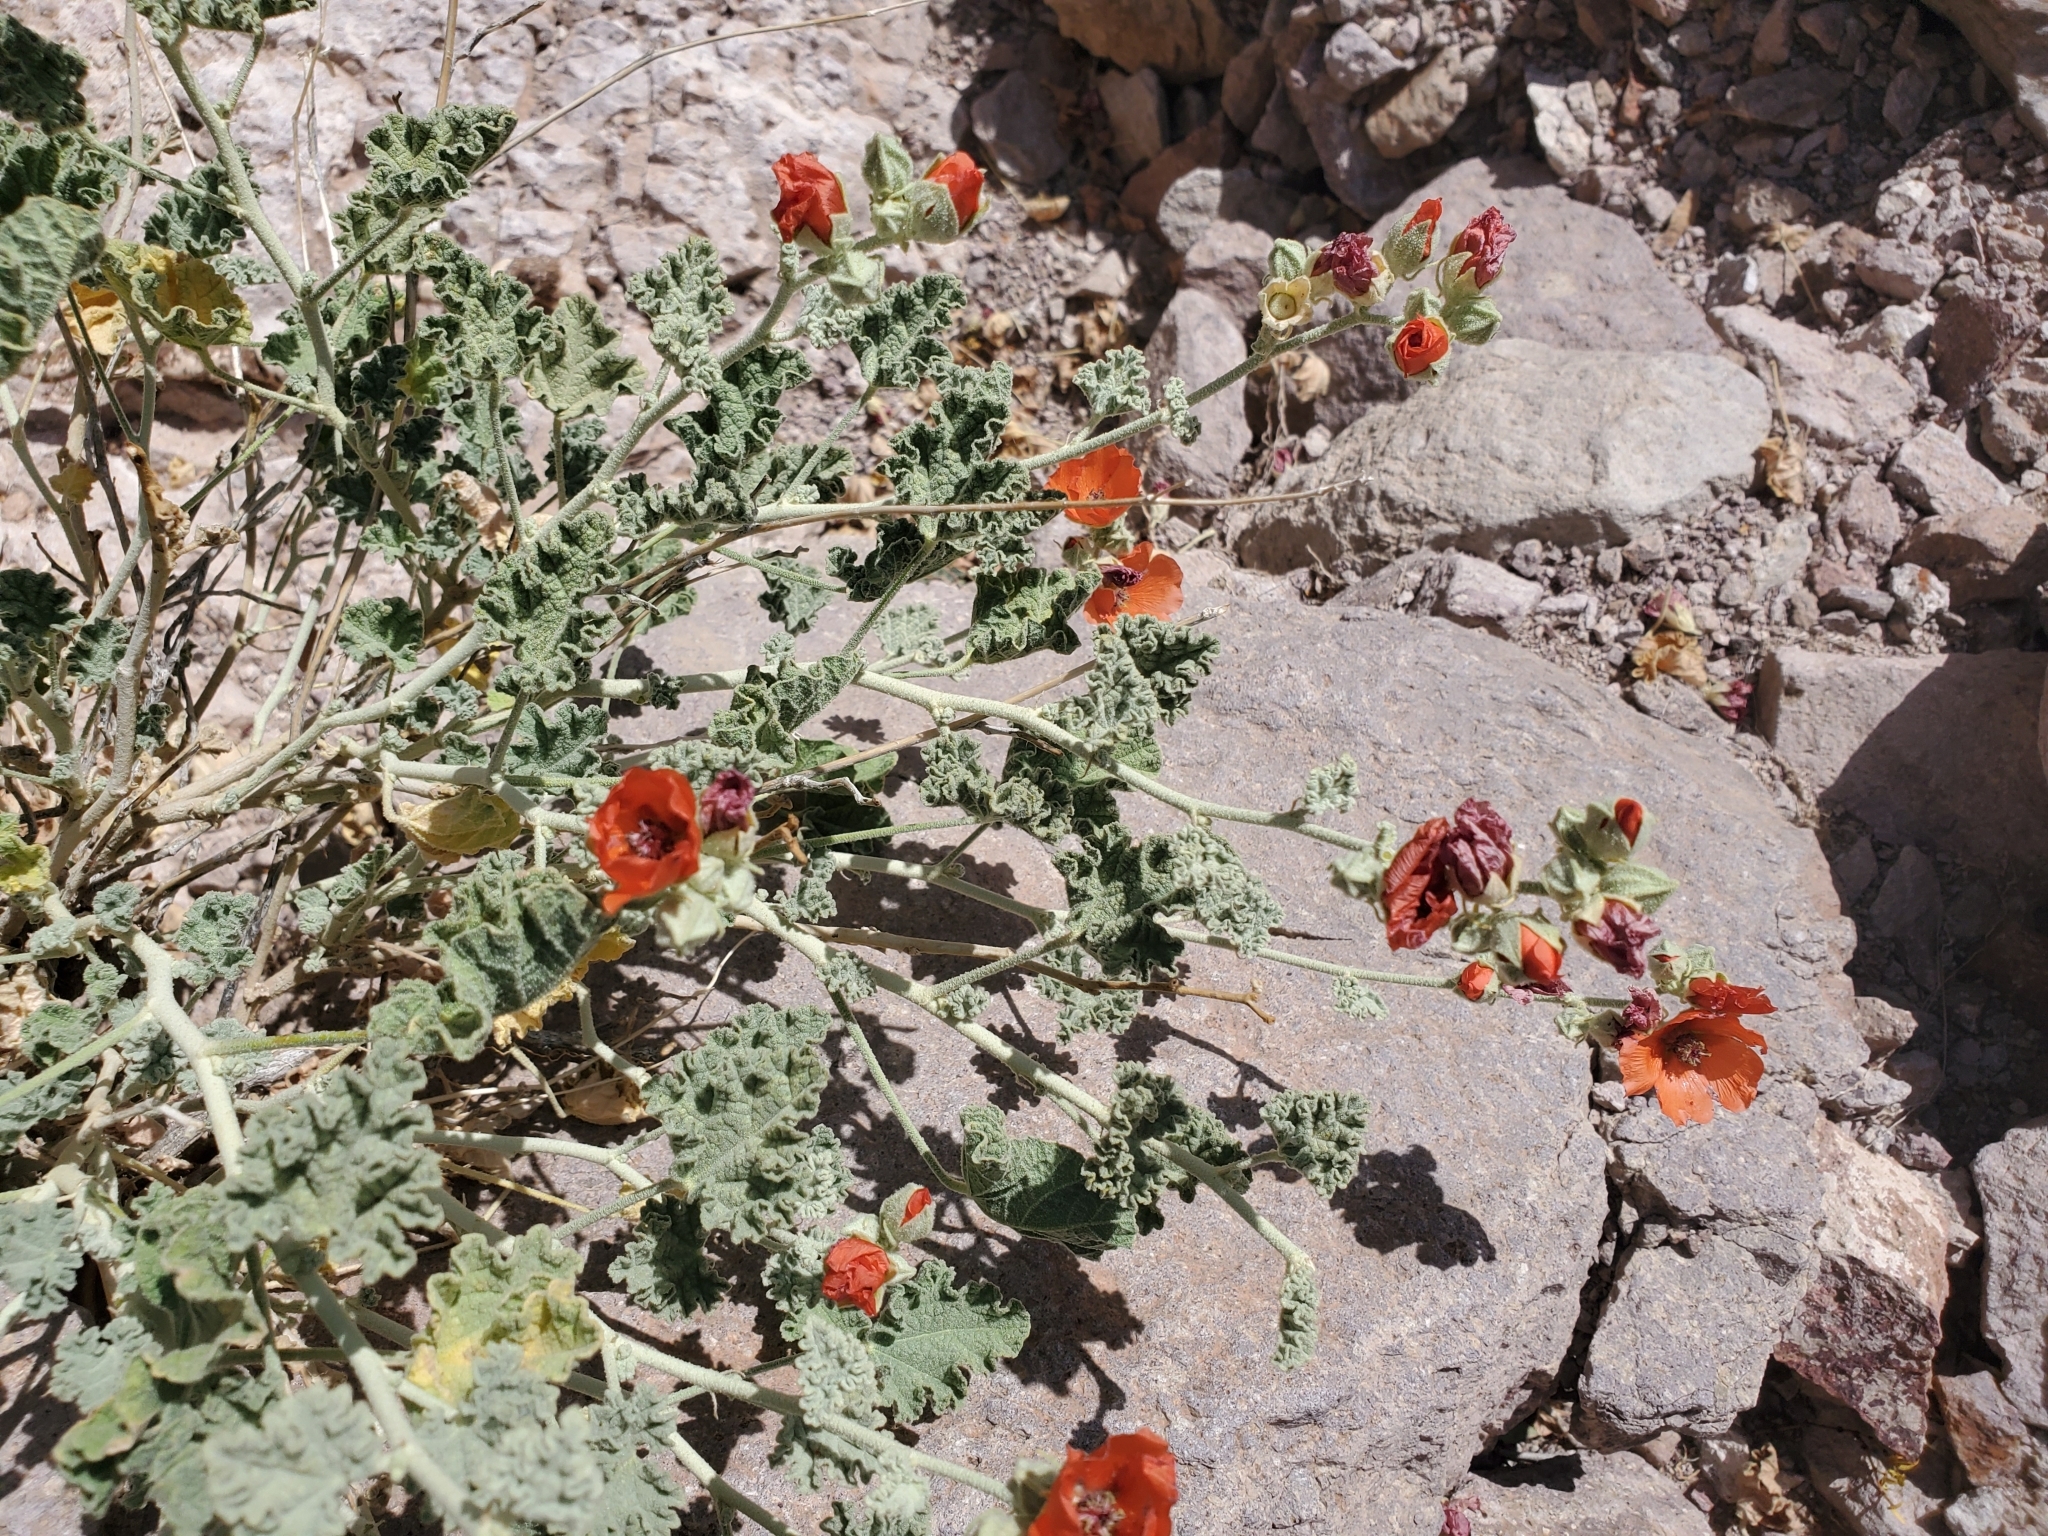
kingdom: Plantae
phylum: Tracheophyta
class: Magnoliopsida
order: Malvales
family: Malvaceae
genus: Sphaeralcea
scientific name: Sphaeralcea ambigua
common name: Apricot globe-mallow
